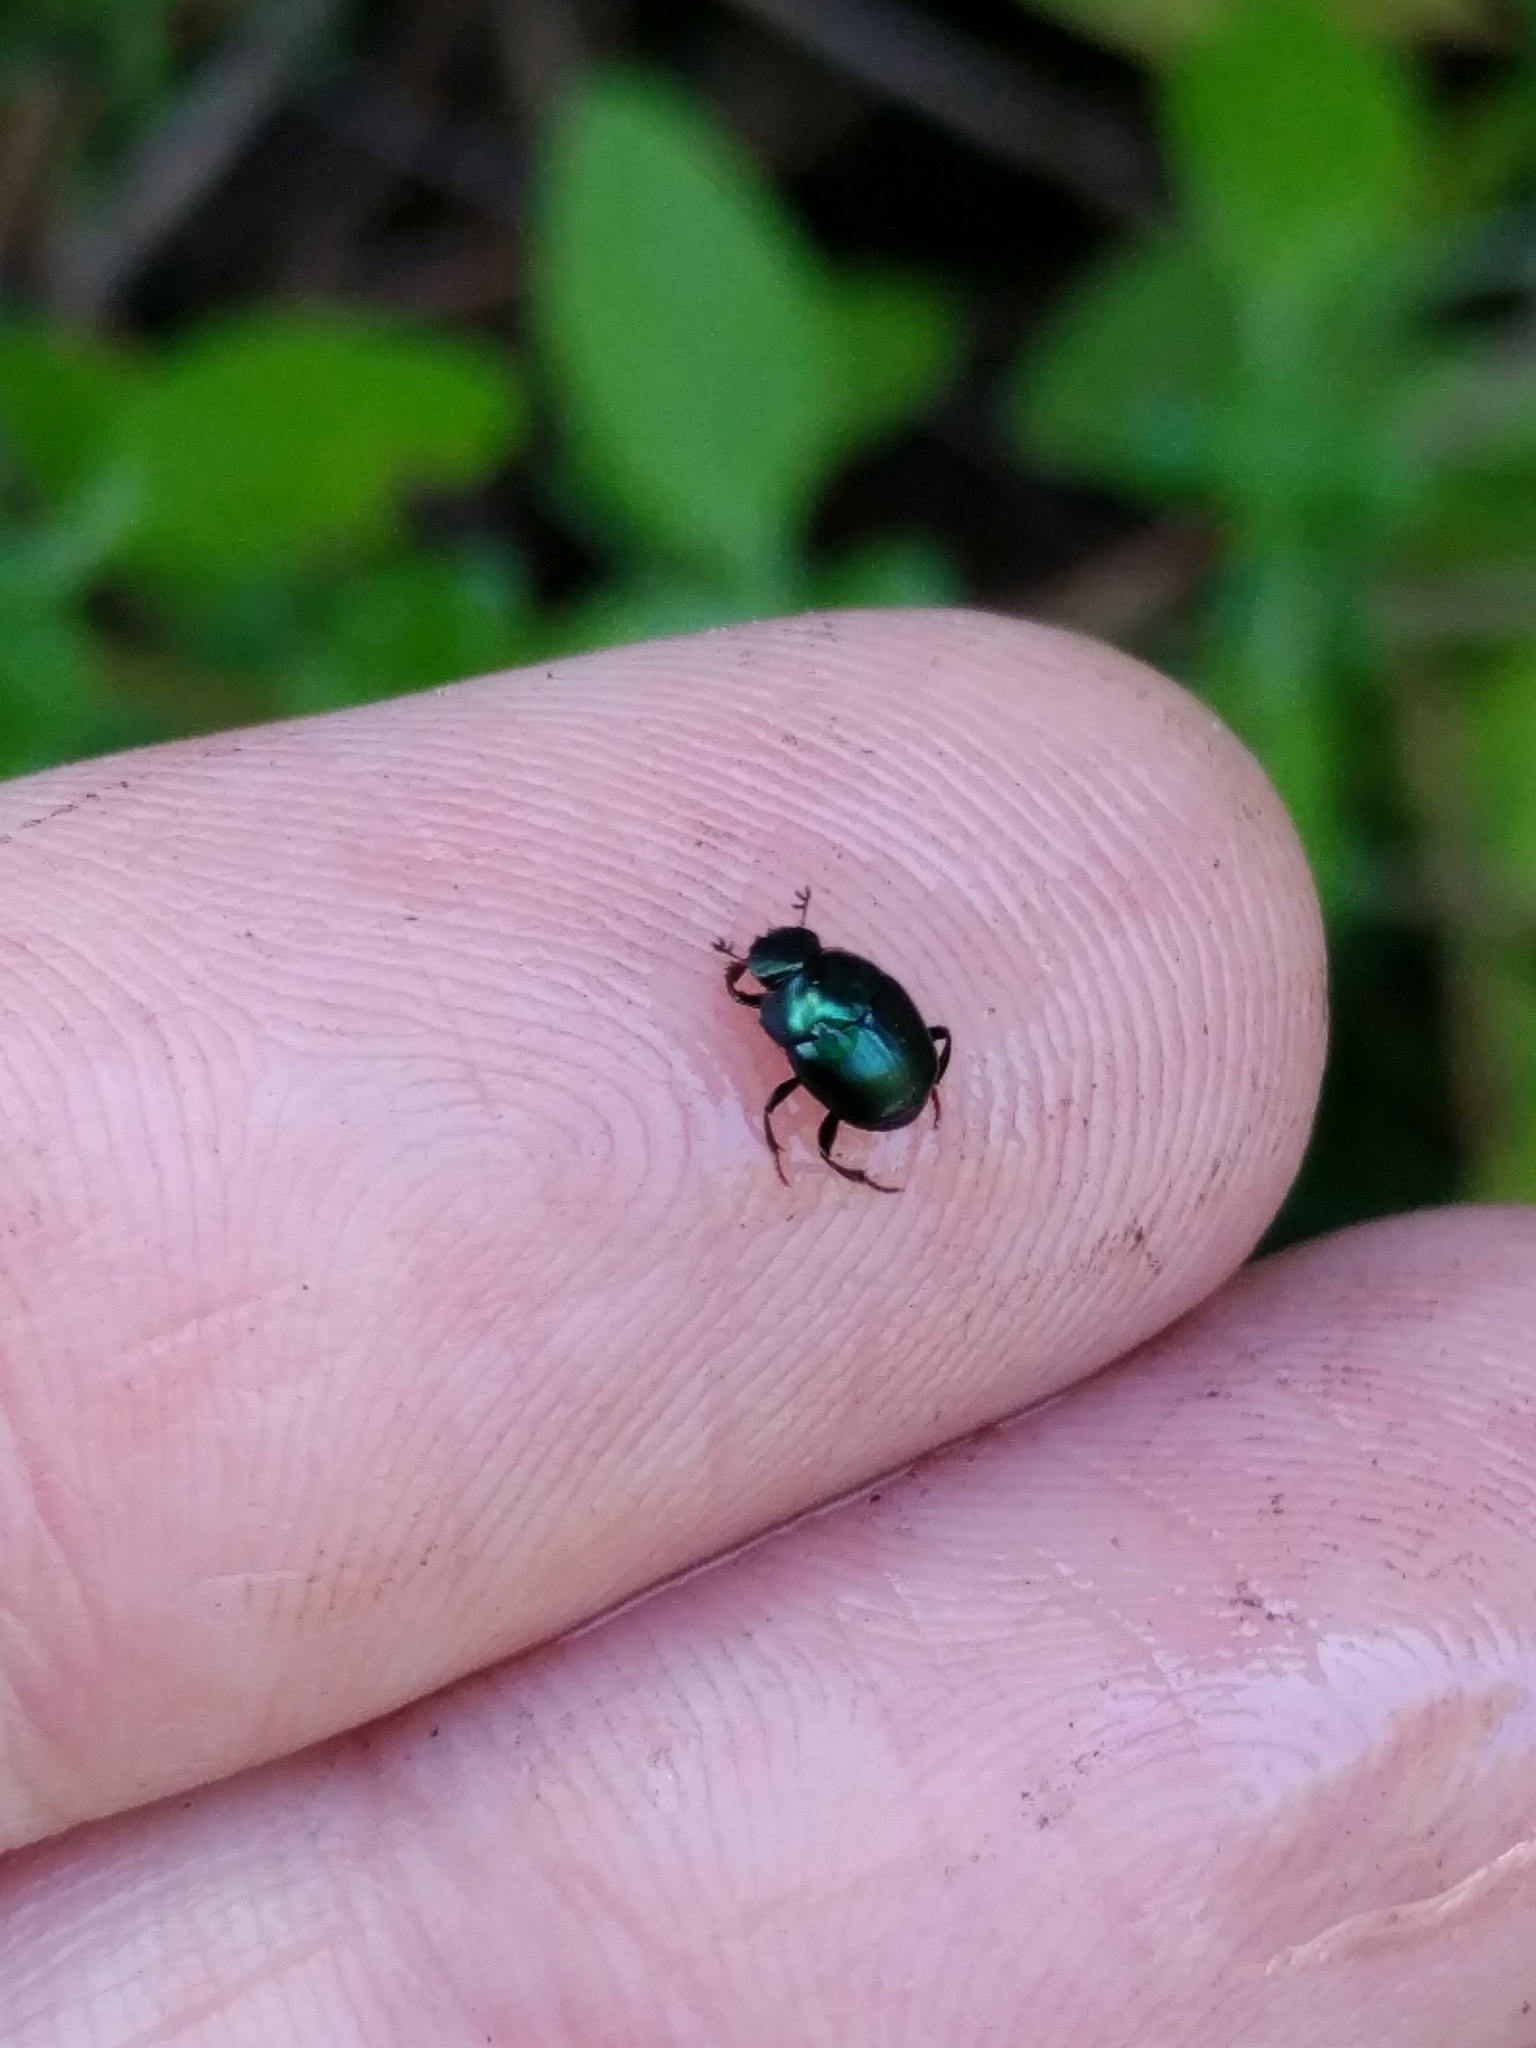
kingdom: Animalia
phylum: Arthropoda
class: Insecta
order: Coleoptera
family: Scarabaeidae
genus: Canthon
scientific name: Canthon viridis
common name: Tumblebug
